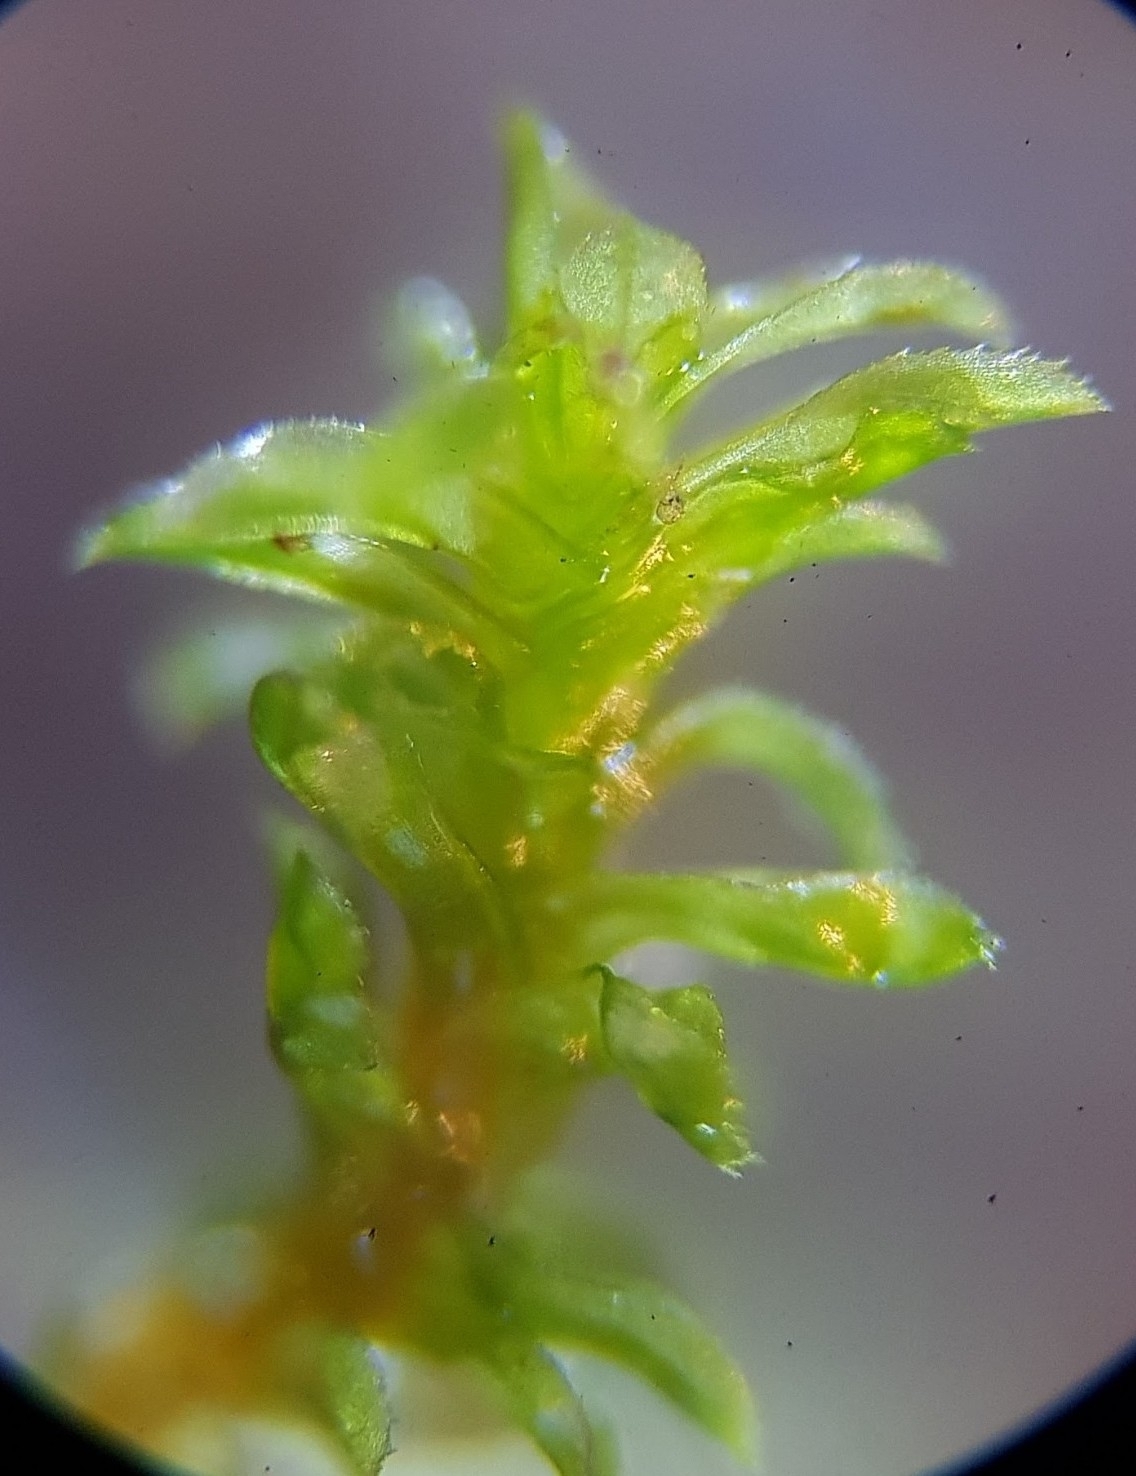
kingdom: Plantae
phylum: Bryophyta
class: Bryopsida
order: Pottiales
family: Pottiaceae
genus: Leptodontium
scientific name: Leptodontium flexifolium
